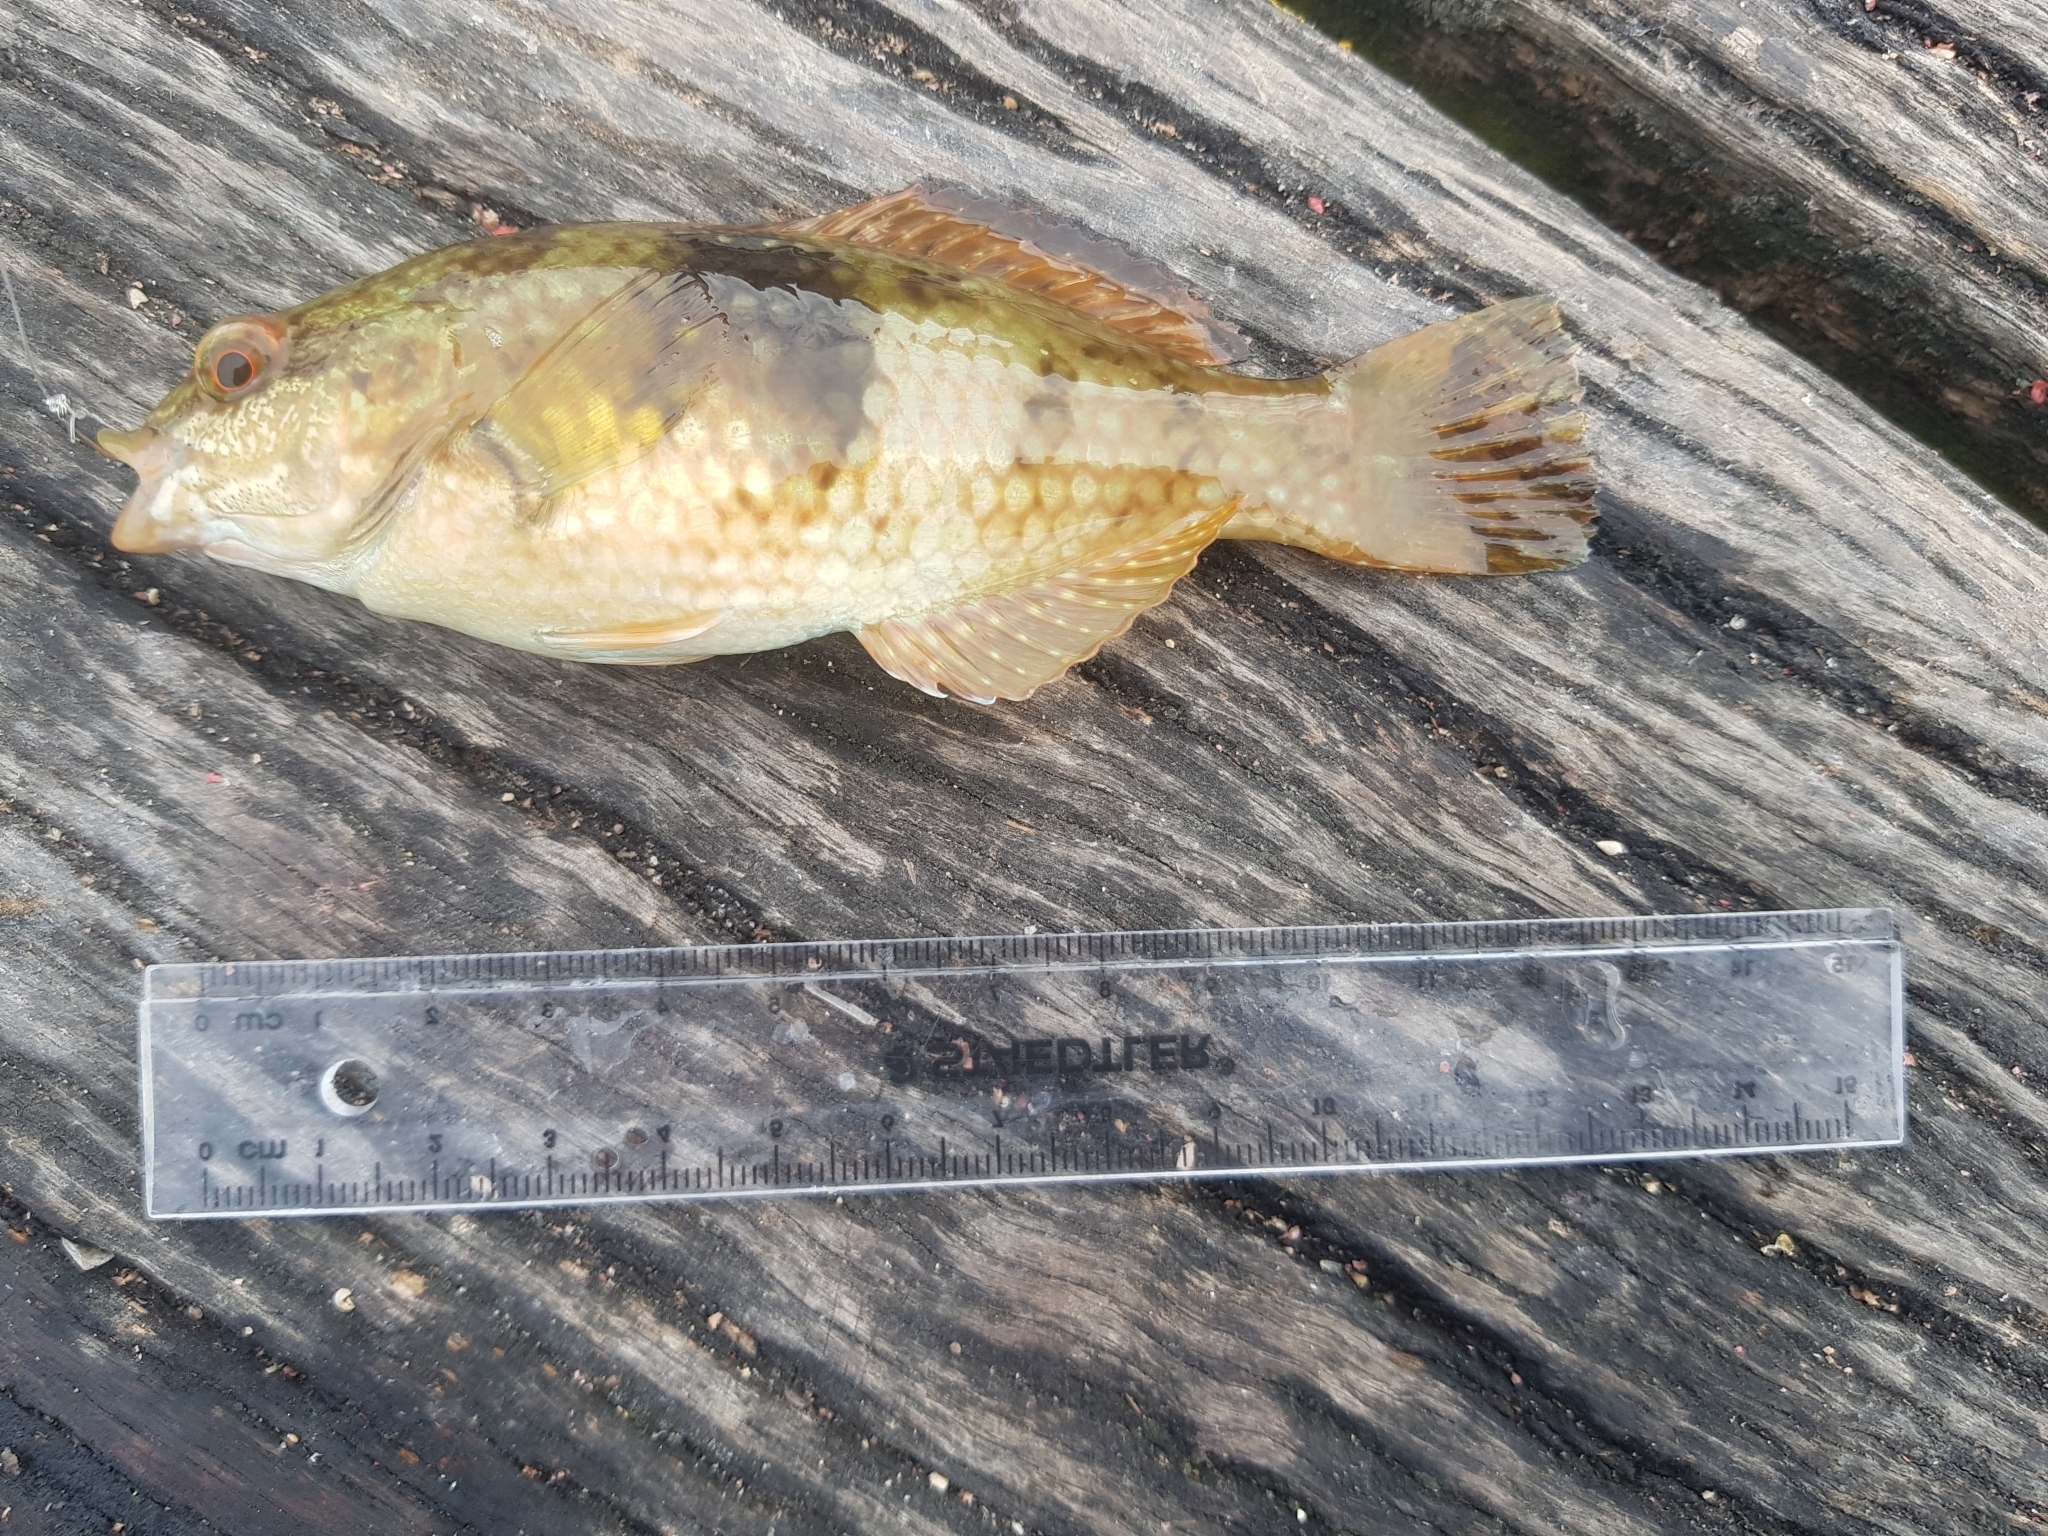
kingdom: Animalia
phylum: Chordata
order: Perciformes
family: Labridae
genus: Notolabrus
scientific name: Notolabrus tetricus
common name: Blue-throated parrotfish
